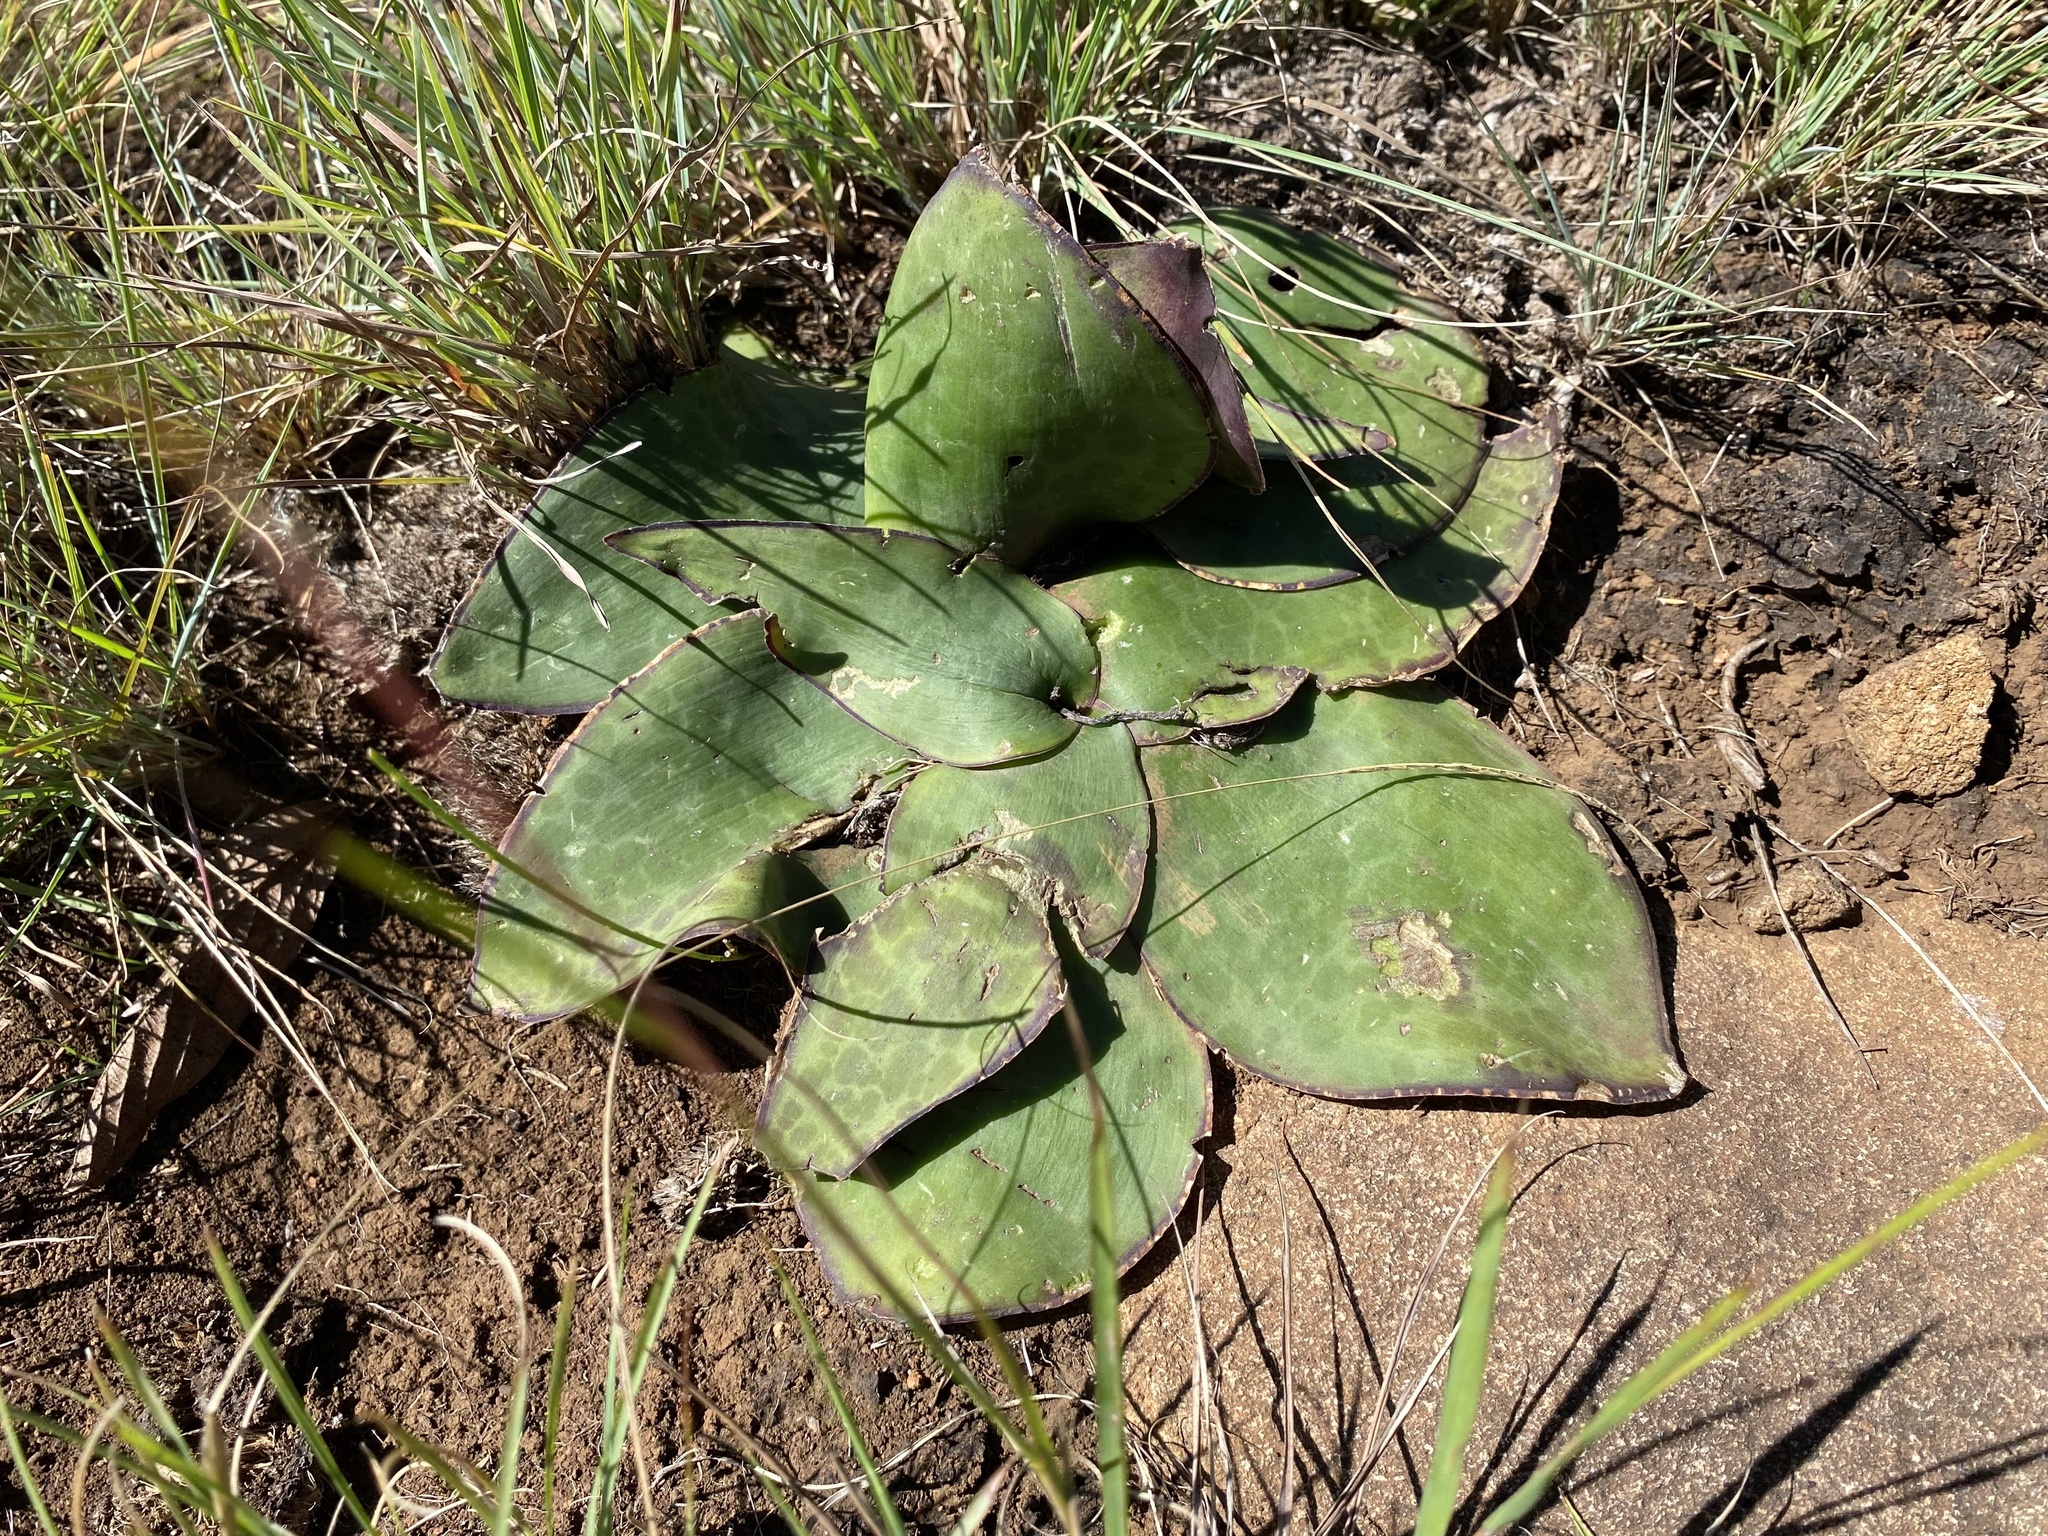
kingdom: Plantae
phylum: Tracheophyta
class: Liliopsida
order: Asparagales
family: Asparagaceae
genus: Ledebouria
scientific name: Ledebouria ovatifolia
